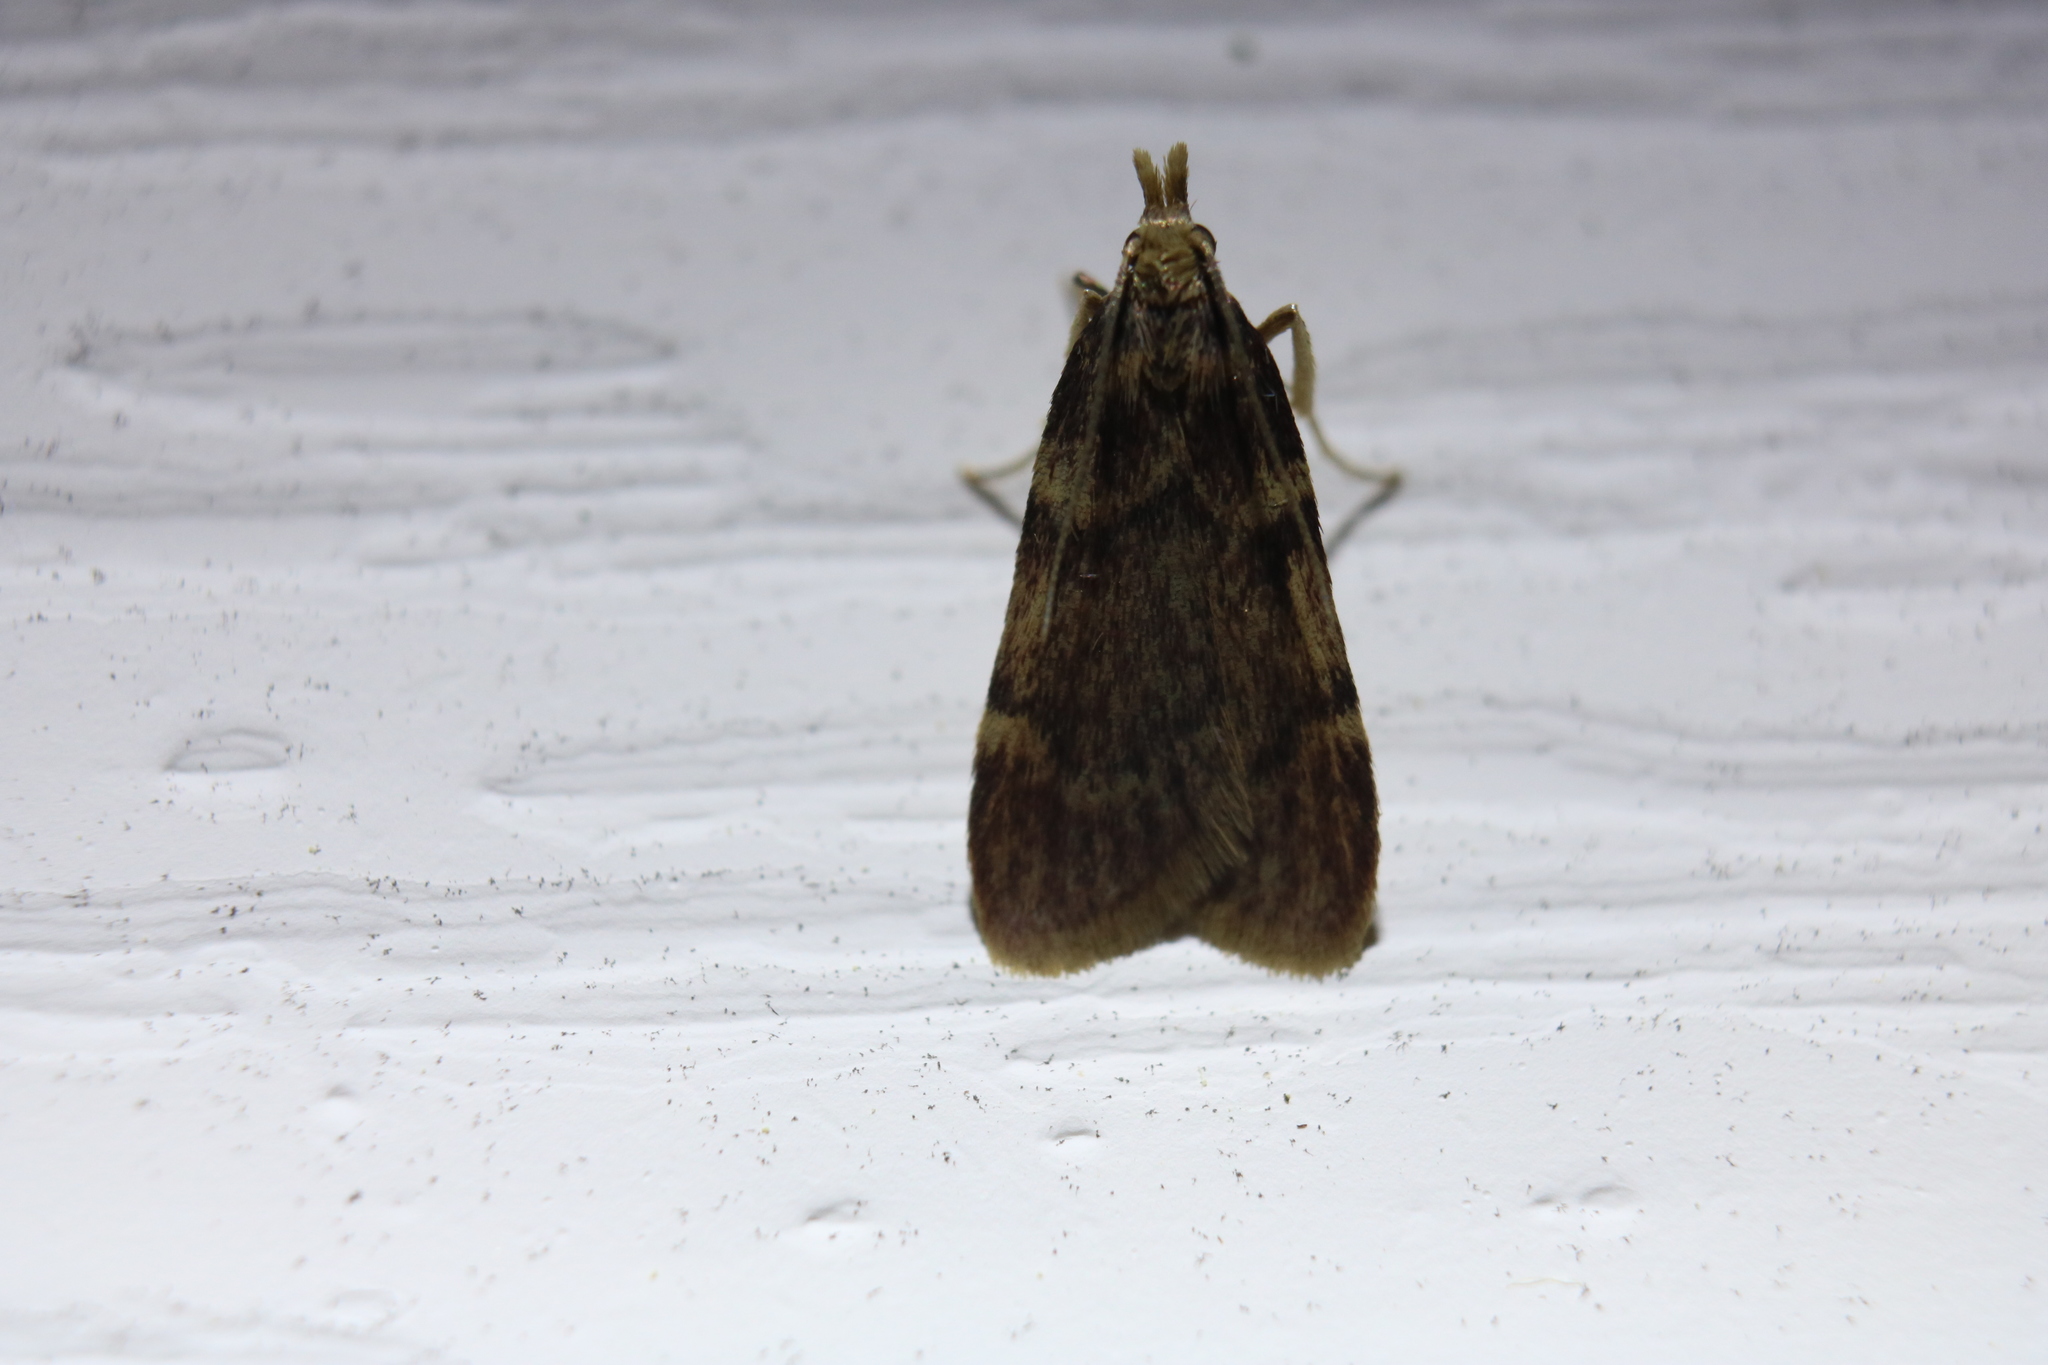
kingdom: Animalia
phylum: Arthropoda
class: Insecta
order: Lepidoptera
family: Pyralidae
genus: Acallis
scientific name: Acallis alticolalis
